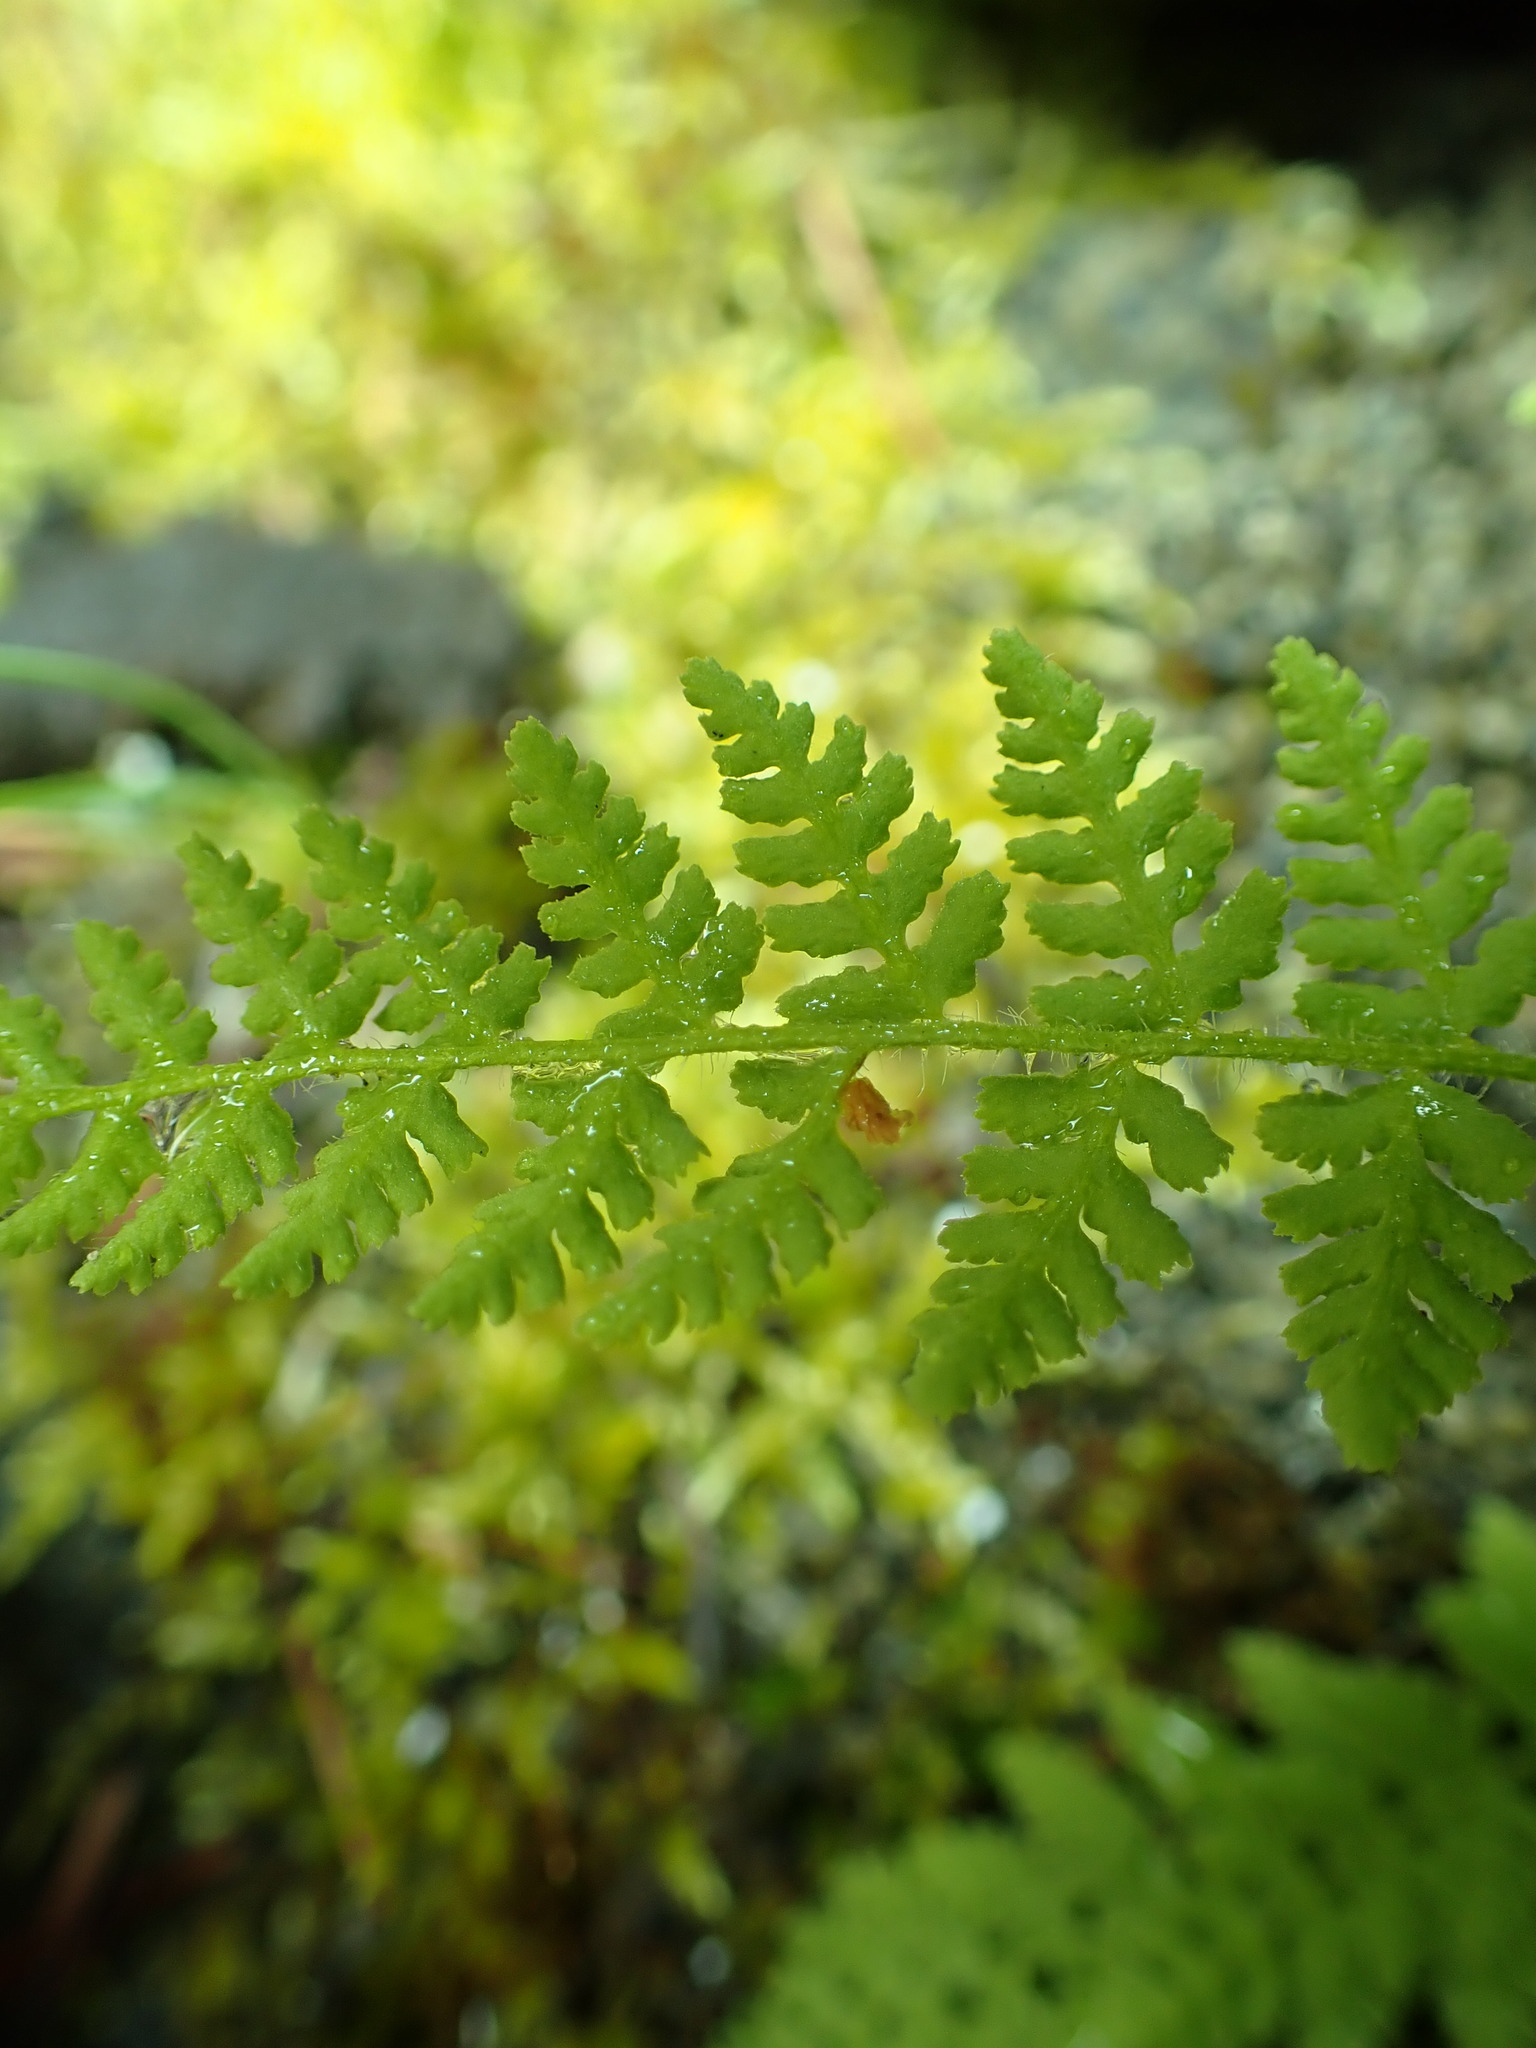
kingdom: Plantae
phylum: Tracheophyta
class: Polypodiopsida
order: Polypodiales
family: Woodsiaceae
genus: Physematium
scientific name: Physematium scopulinum
